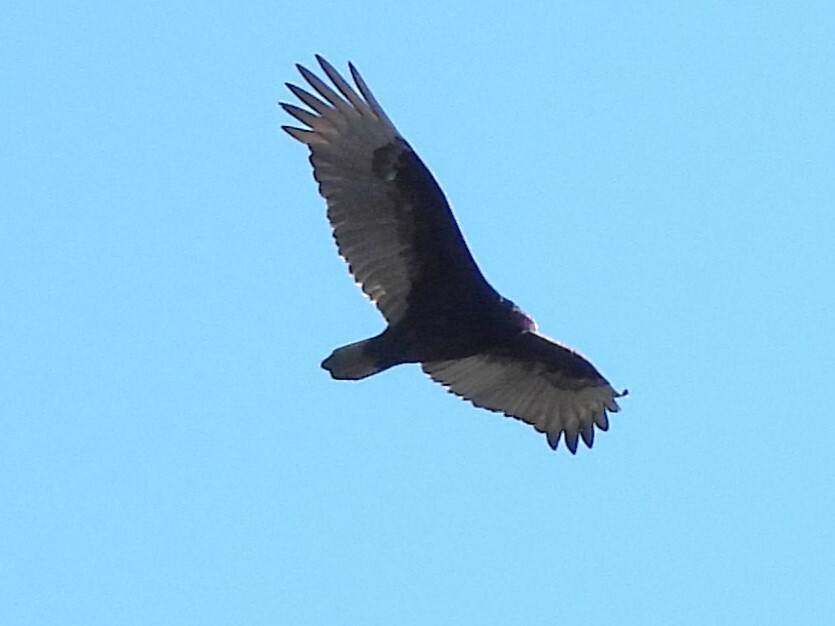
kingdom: Animalia
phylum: Chordata
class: Aves
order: Accipitriformes
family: Cathartidae
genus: Cathartes
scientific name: Cathartes aura
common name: Turkey vulture
